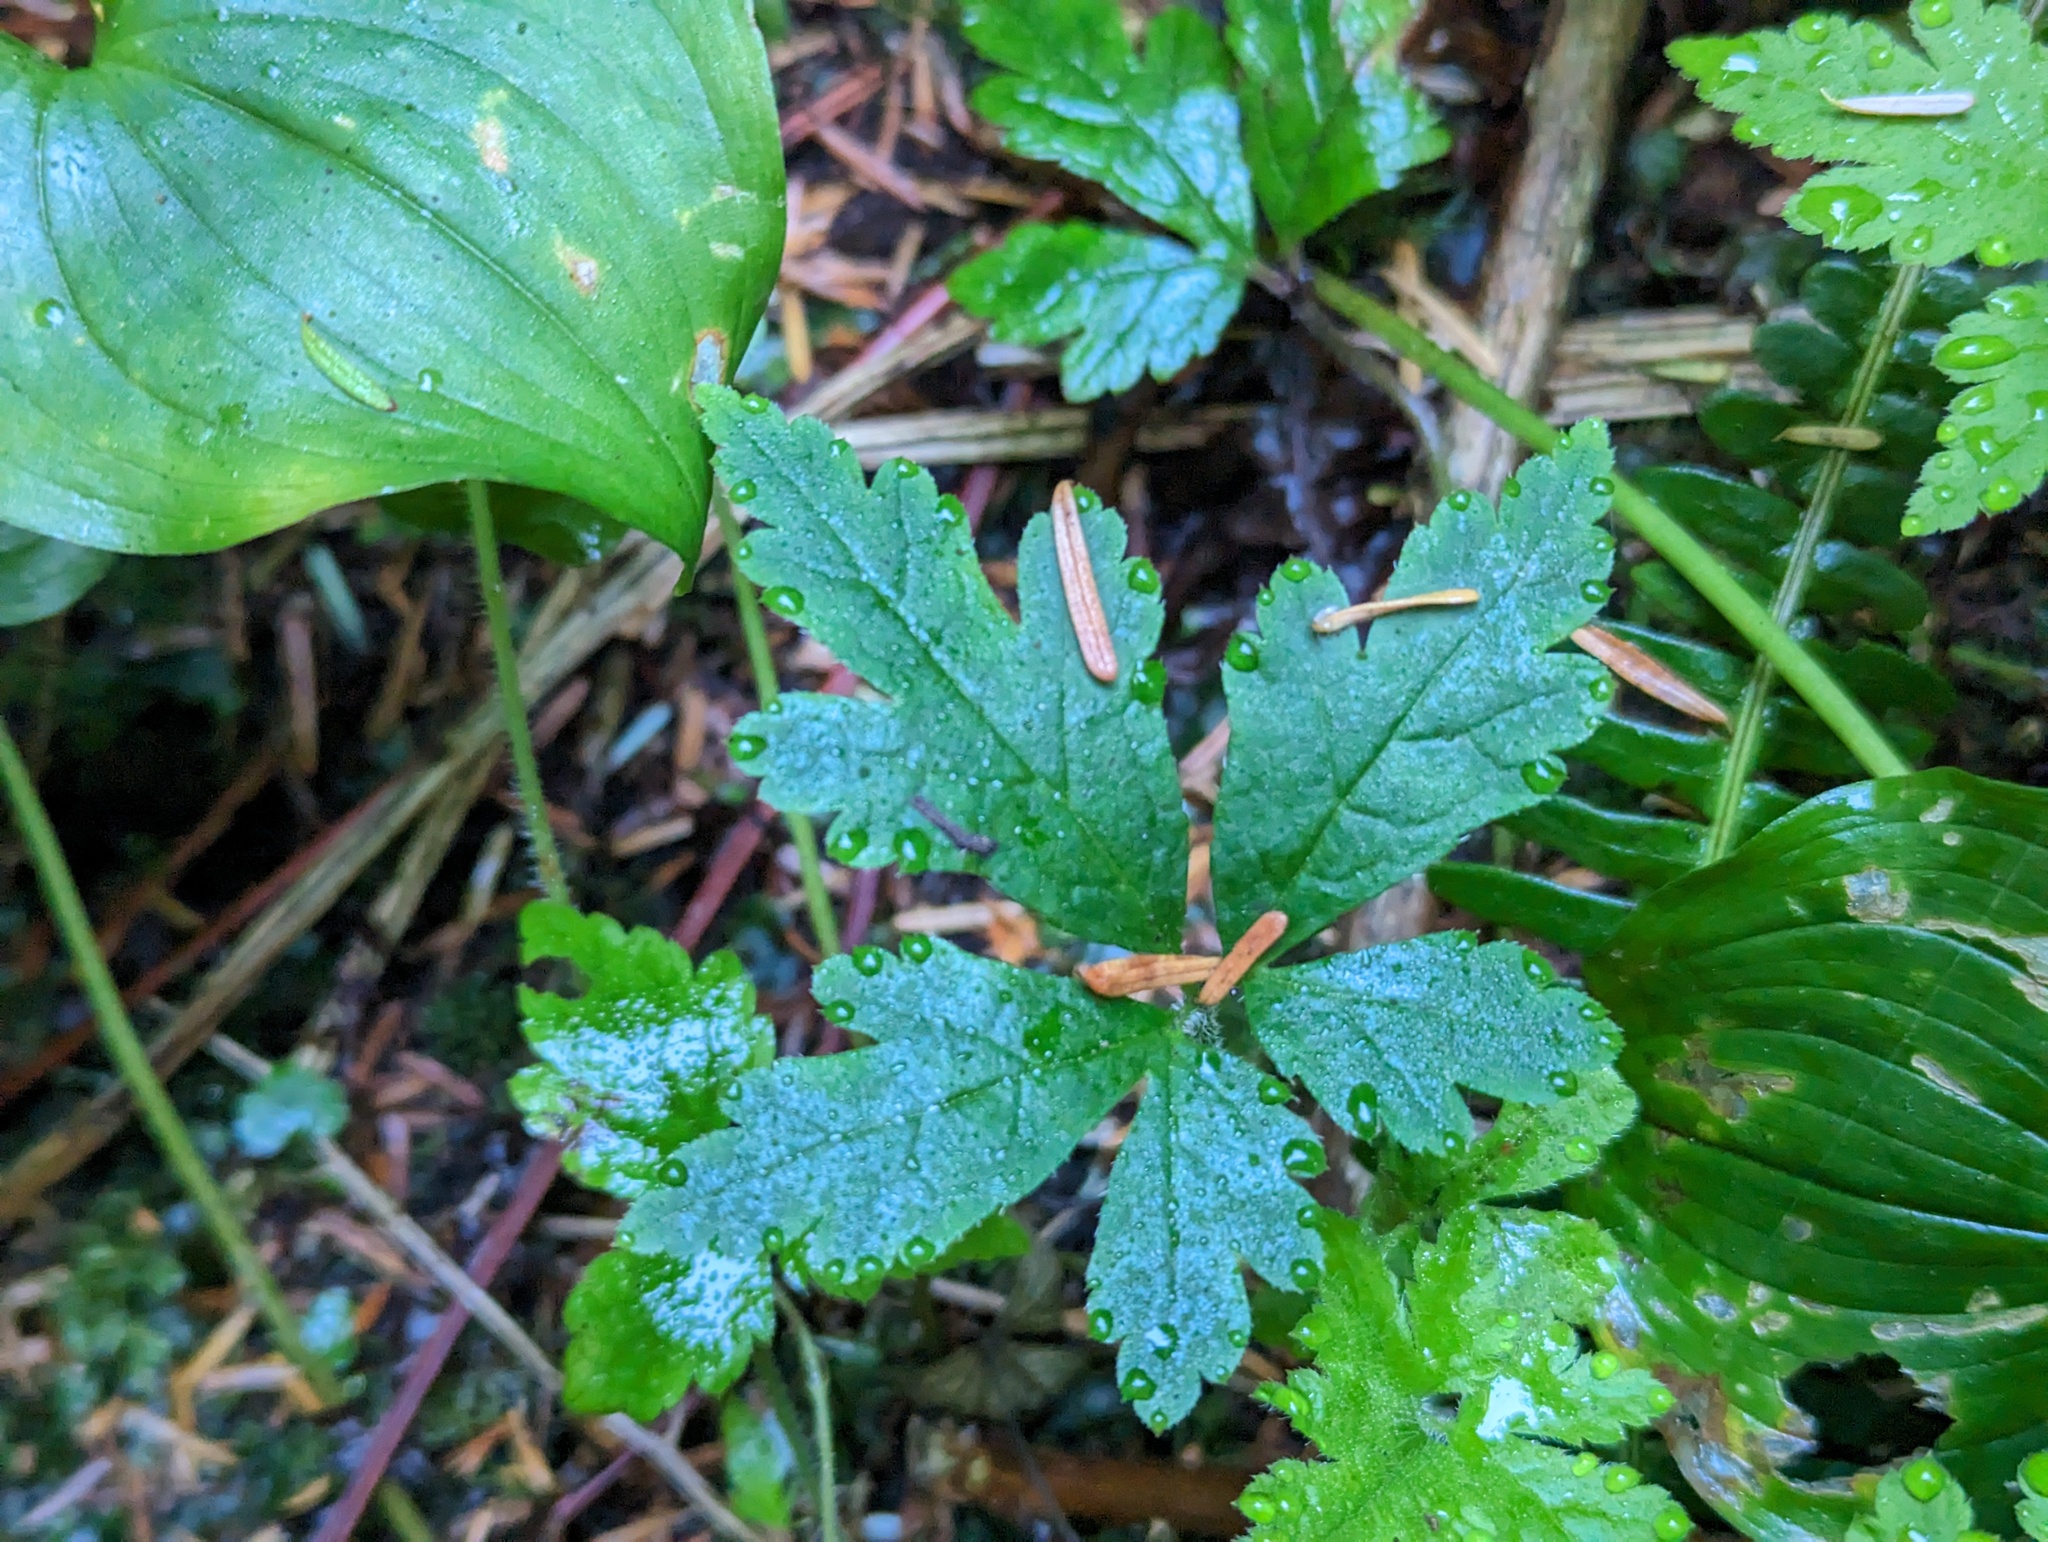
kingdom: Plantae
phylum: Tracheophyta
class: Magnoliopsida
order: Saxifragales
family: Saxifragaceae
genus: Tiarella
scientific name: Tiarella trifoliata
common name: Sugar-scoop
